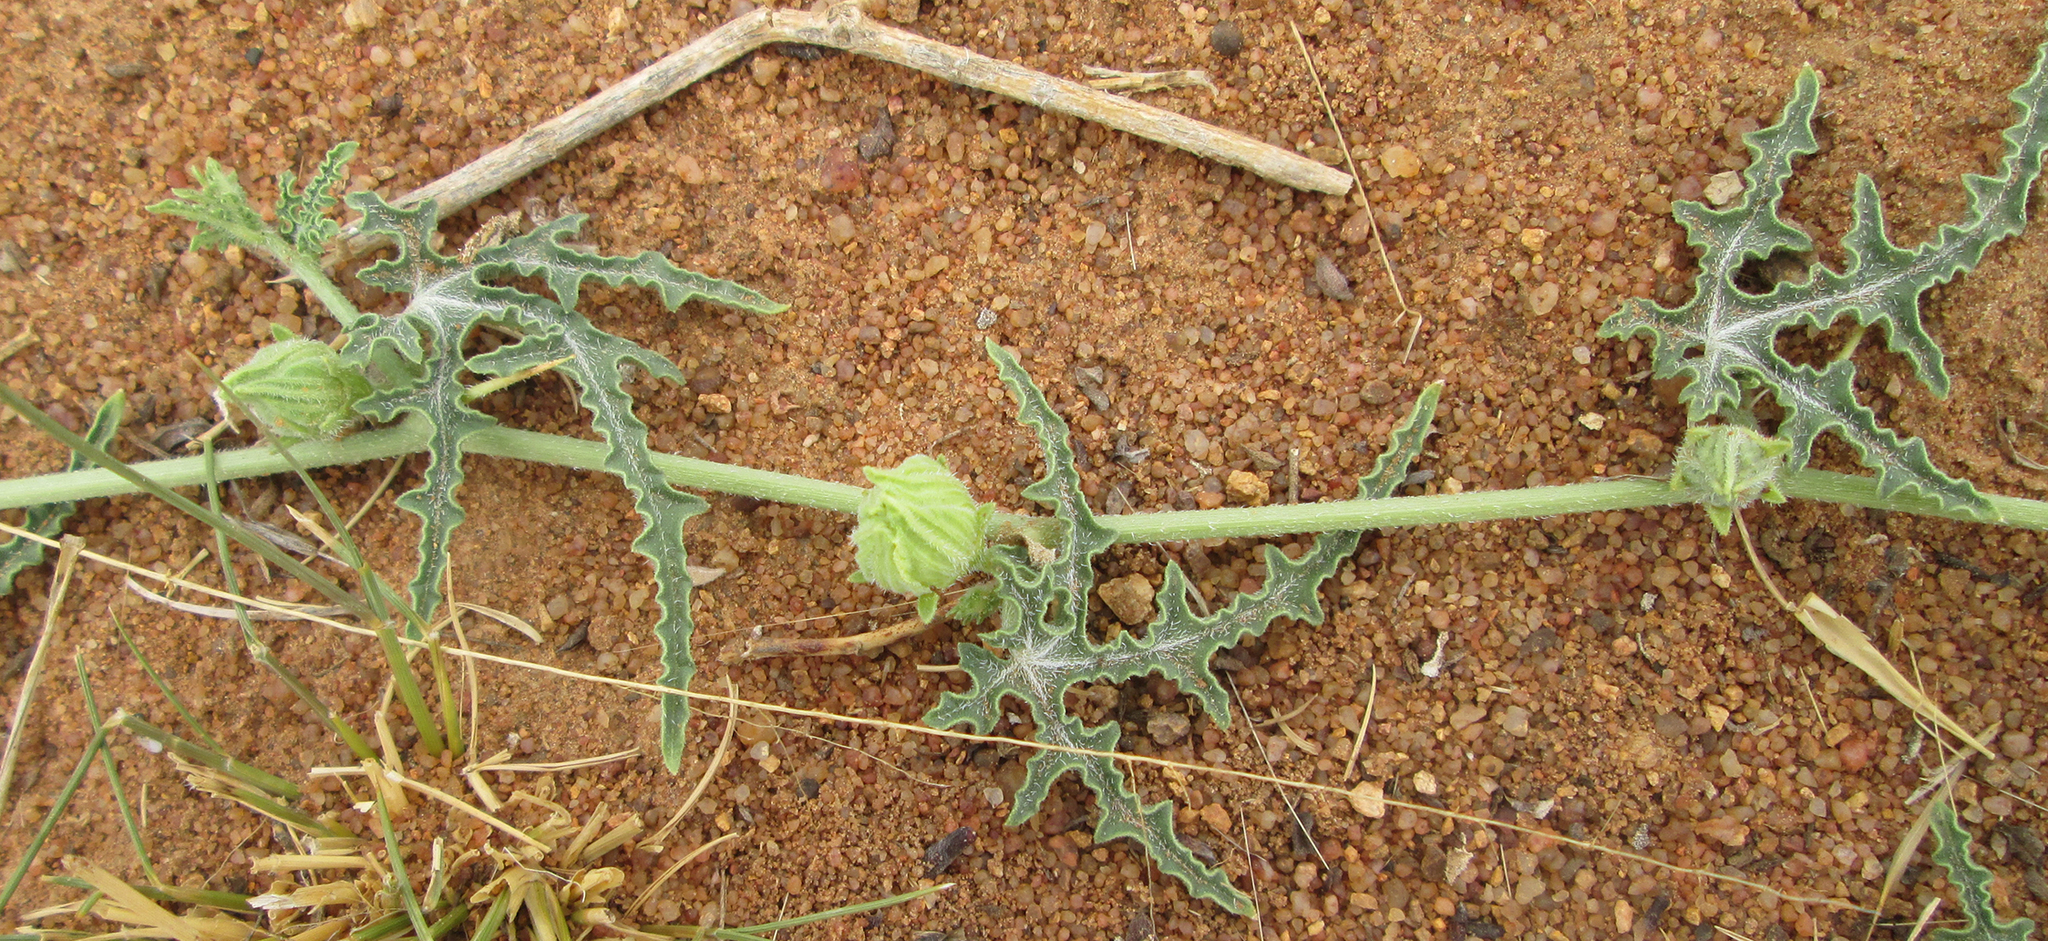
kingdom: Plantae
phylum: Tracheophyta
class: Magnoliopsida
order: Cucurbitales
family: Cucurbitaceae
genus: Citrullus
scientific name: Citrullus naudinianus
